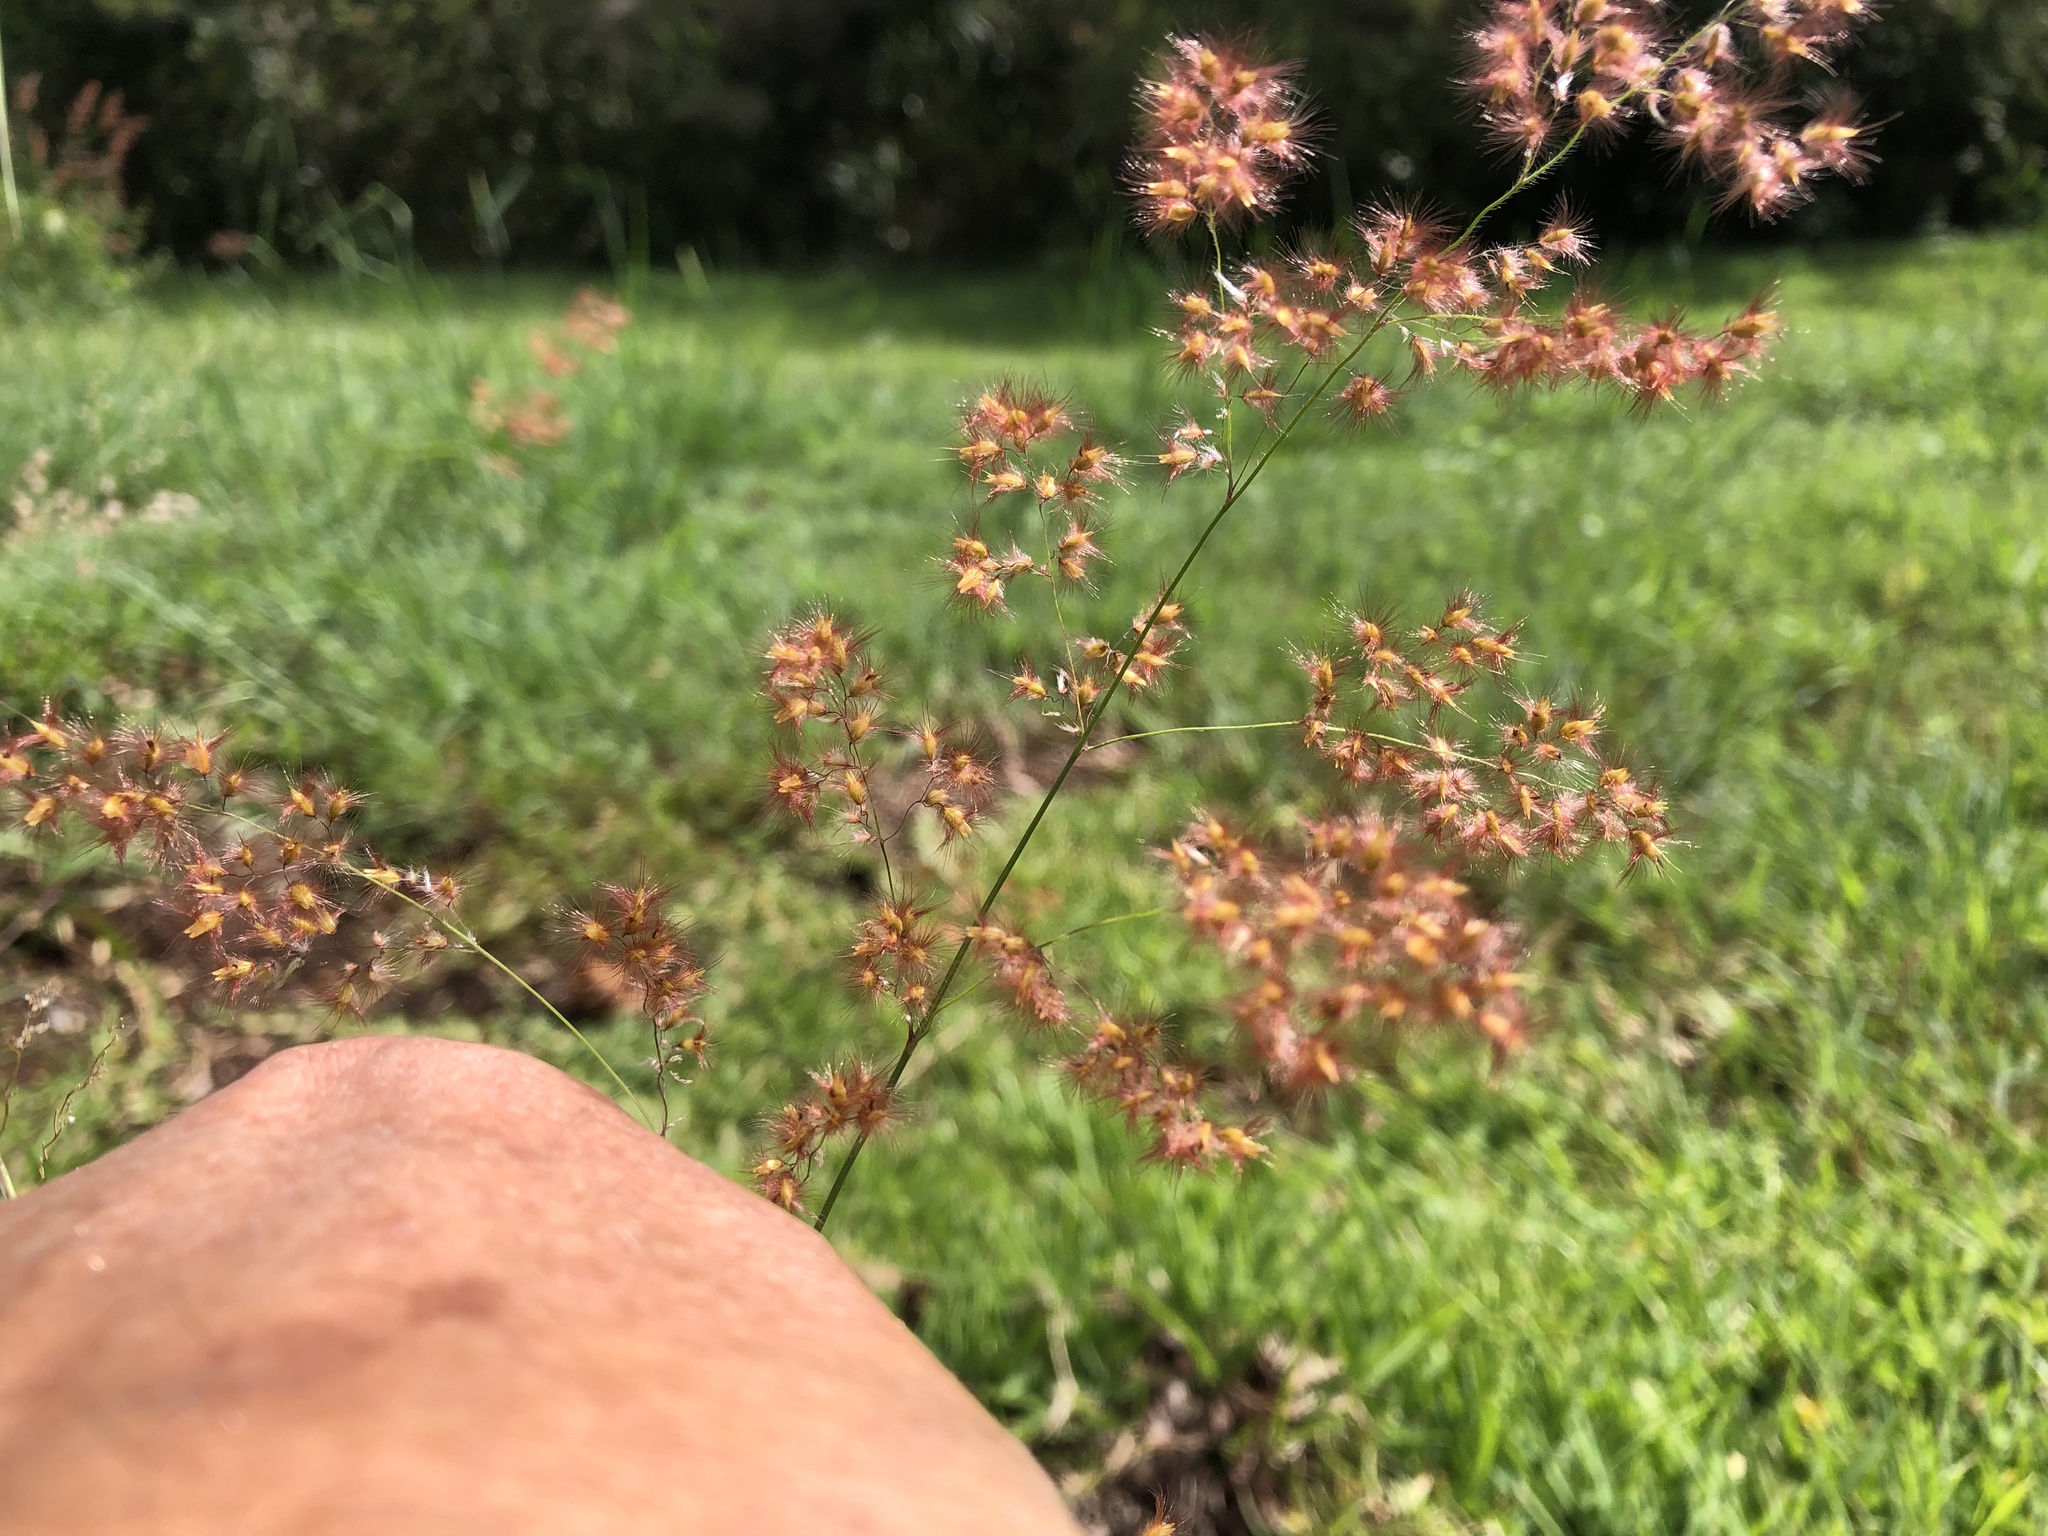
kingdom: Plantae
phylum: Tracheophyta
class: Liliopsida
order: Poales
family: Poaceae
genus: Melinis
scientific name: Melinis repens
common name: Rose natal grass
